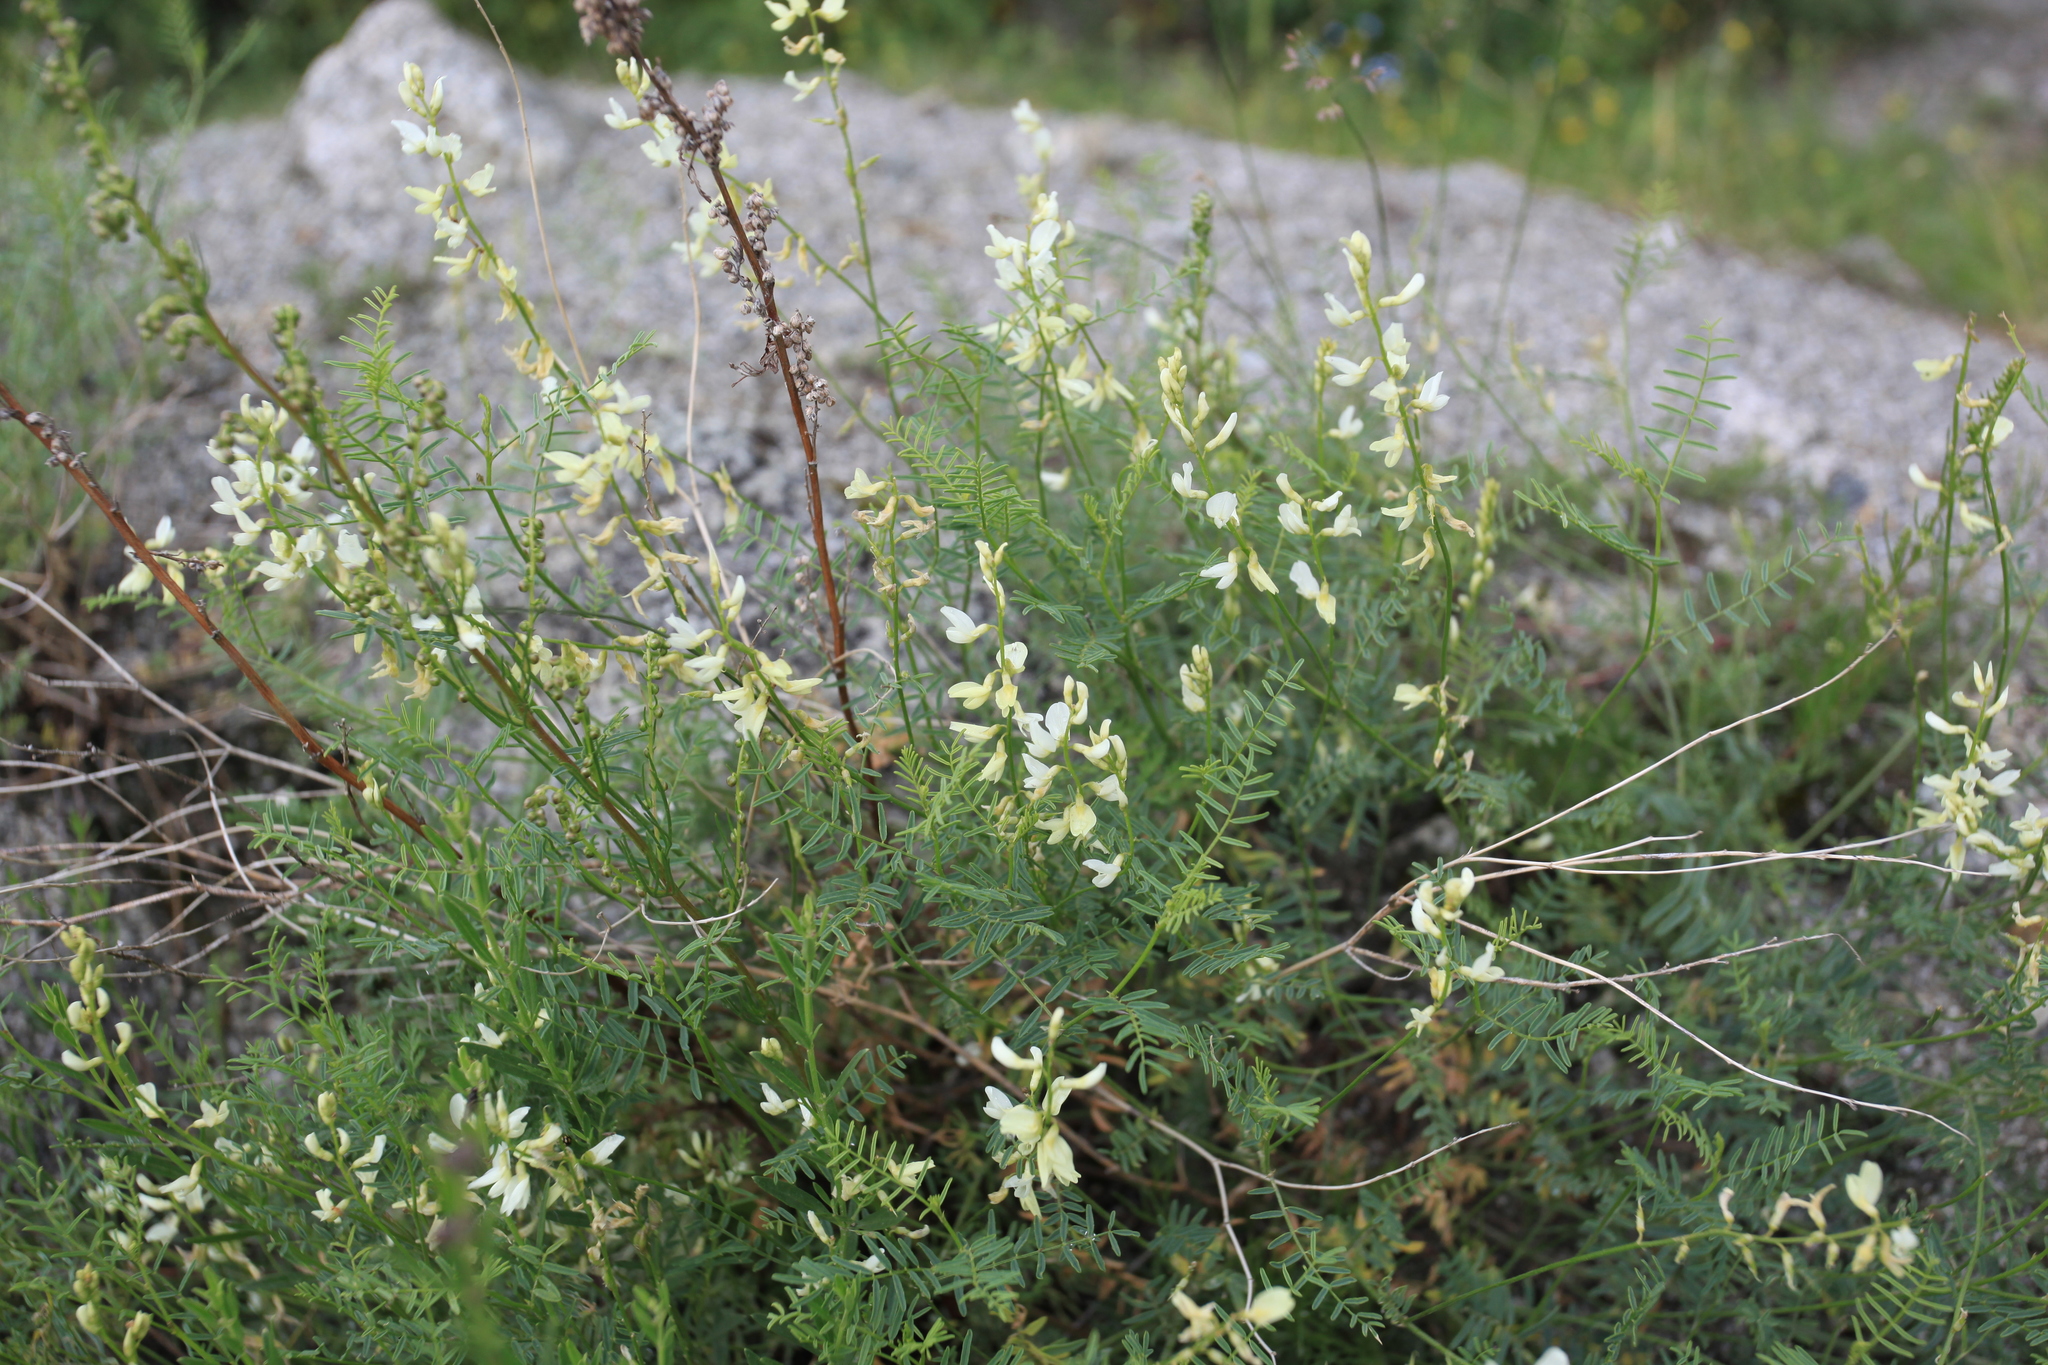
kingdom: Plantae
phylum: Tracheophyta
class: Magnoliopsida
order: Fabales
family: Fabaceae
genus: Astragalus
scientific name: Astragalus katunicus
